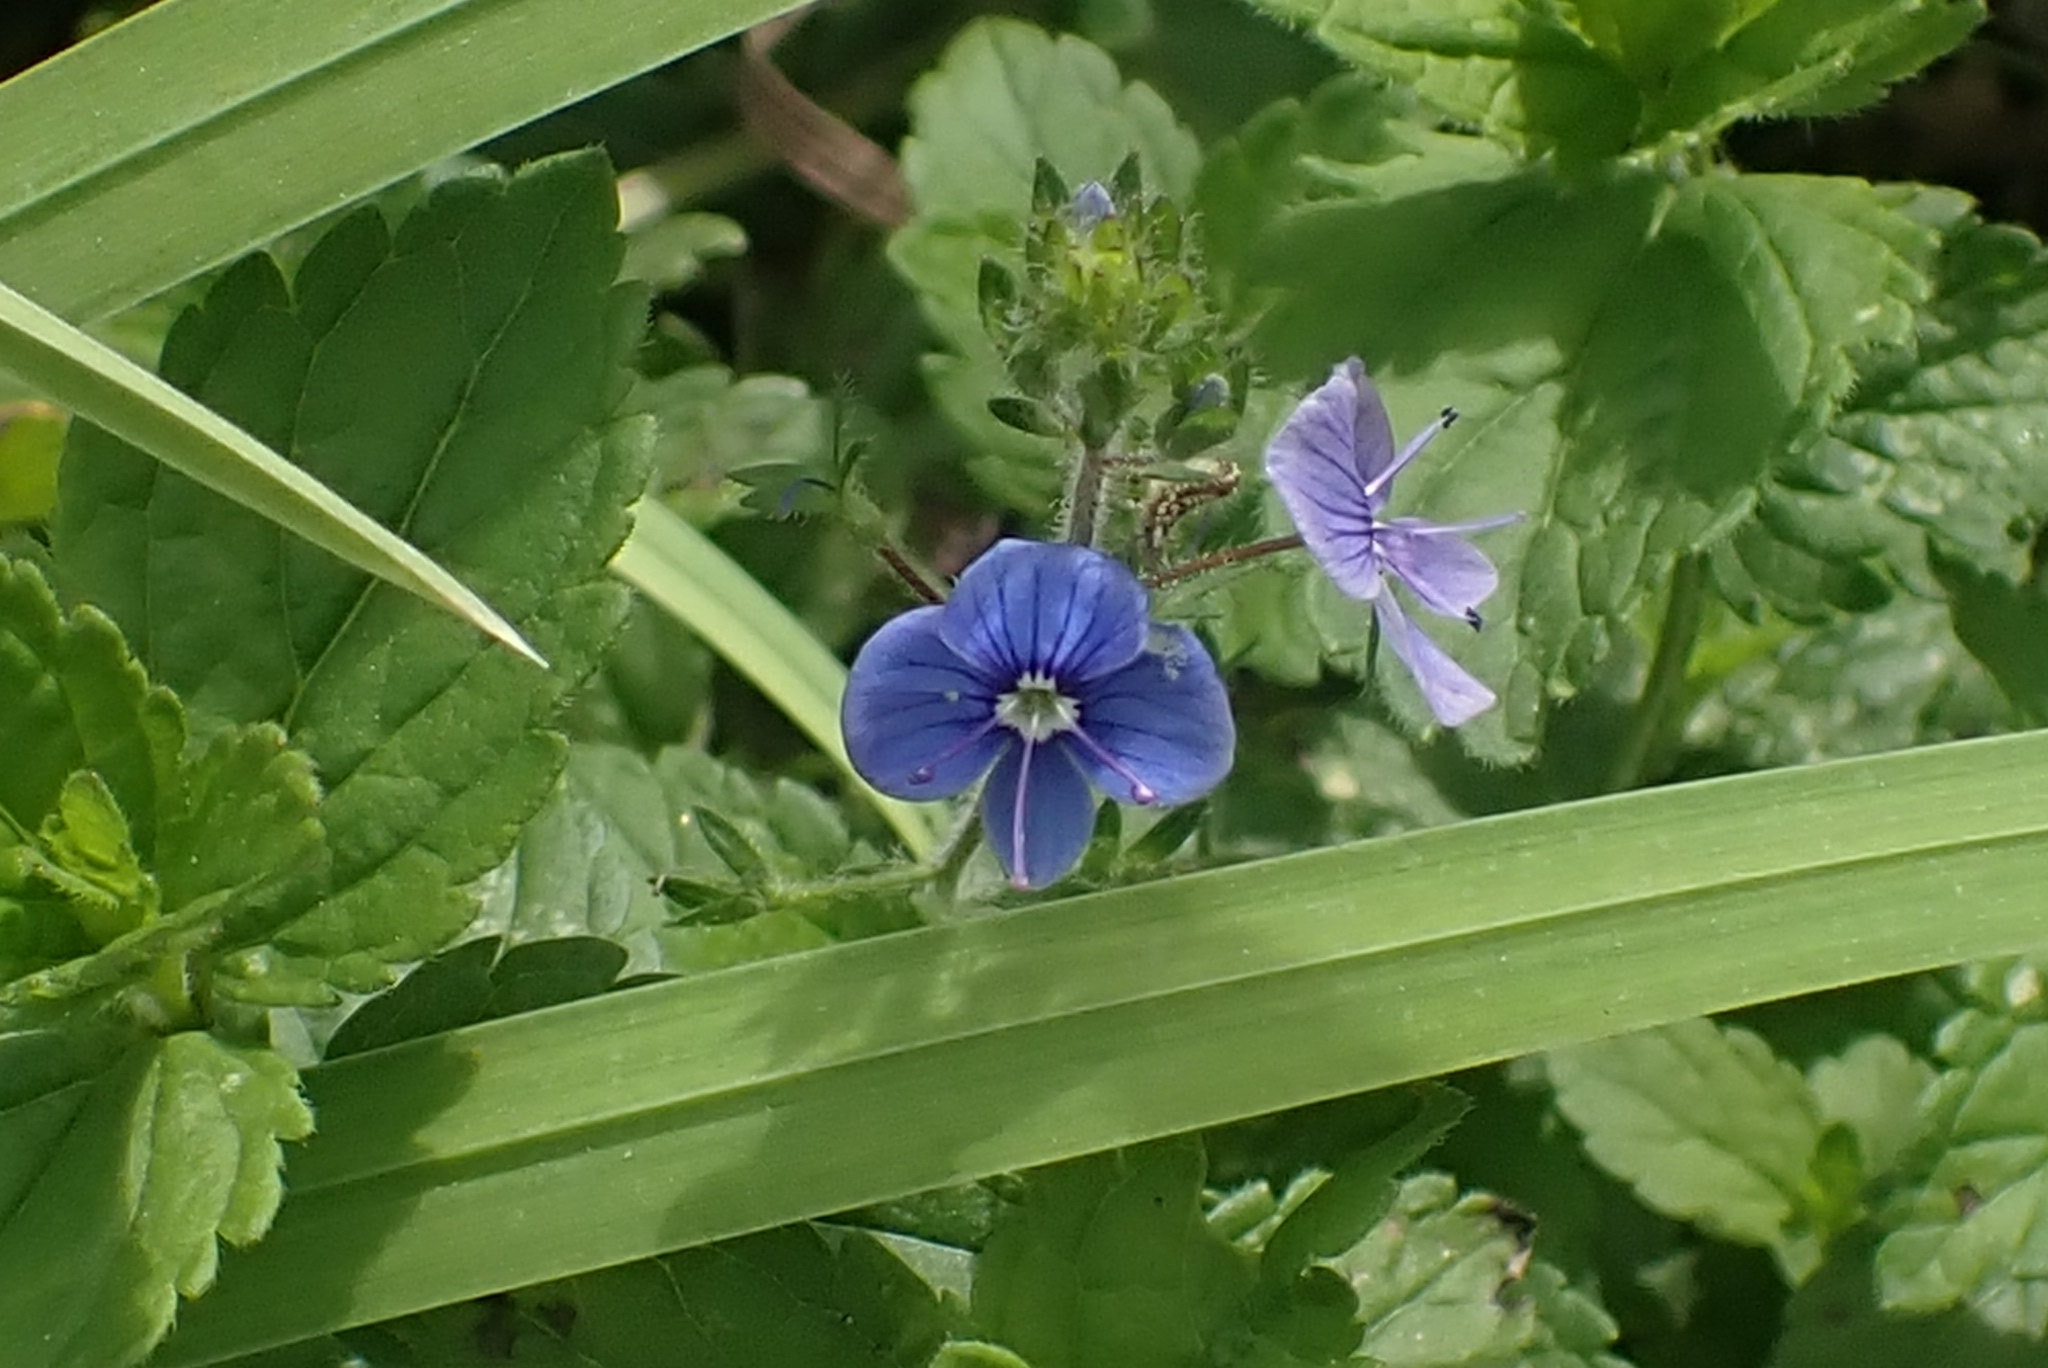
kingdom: Plantae
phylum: Tracheophyta
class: Magnoliopsida
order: Lamiales
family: Plantaginaceae
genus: Veronica
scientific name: Veronica chamaedrys
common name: Germander speedwell
